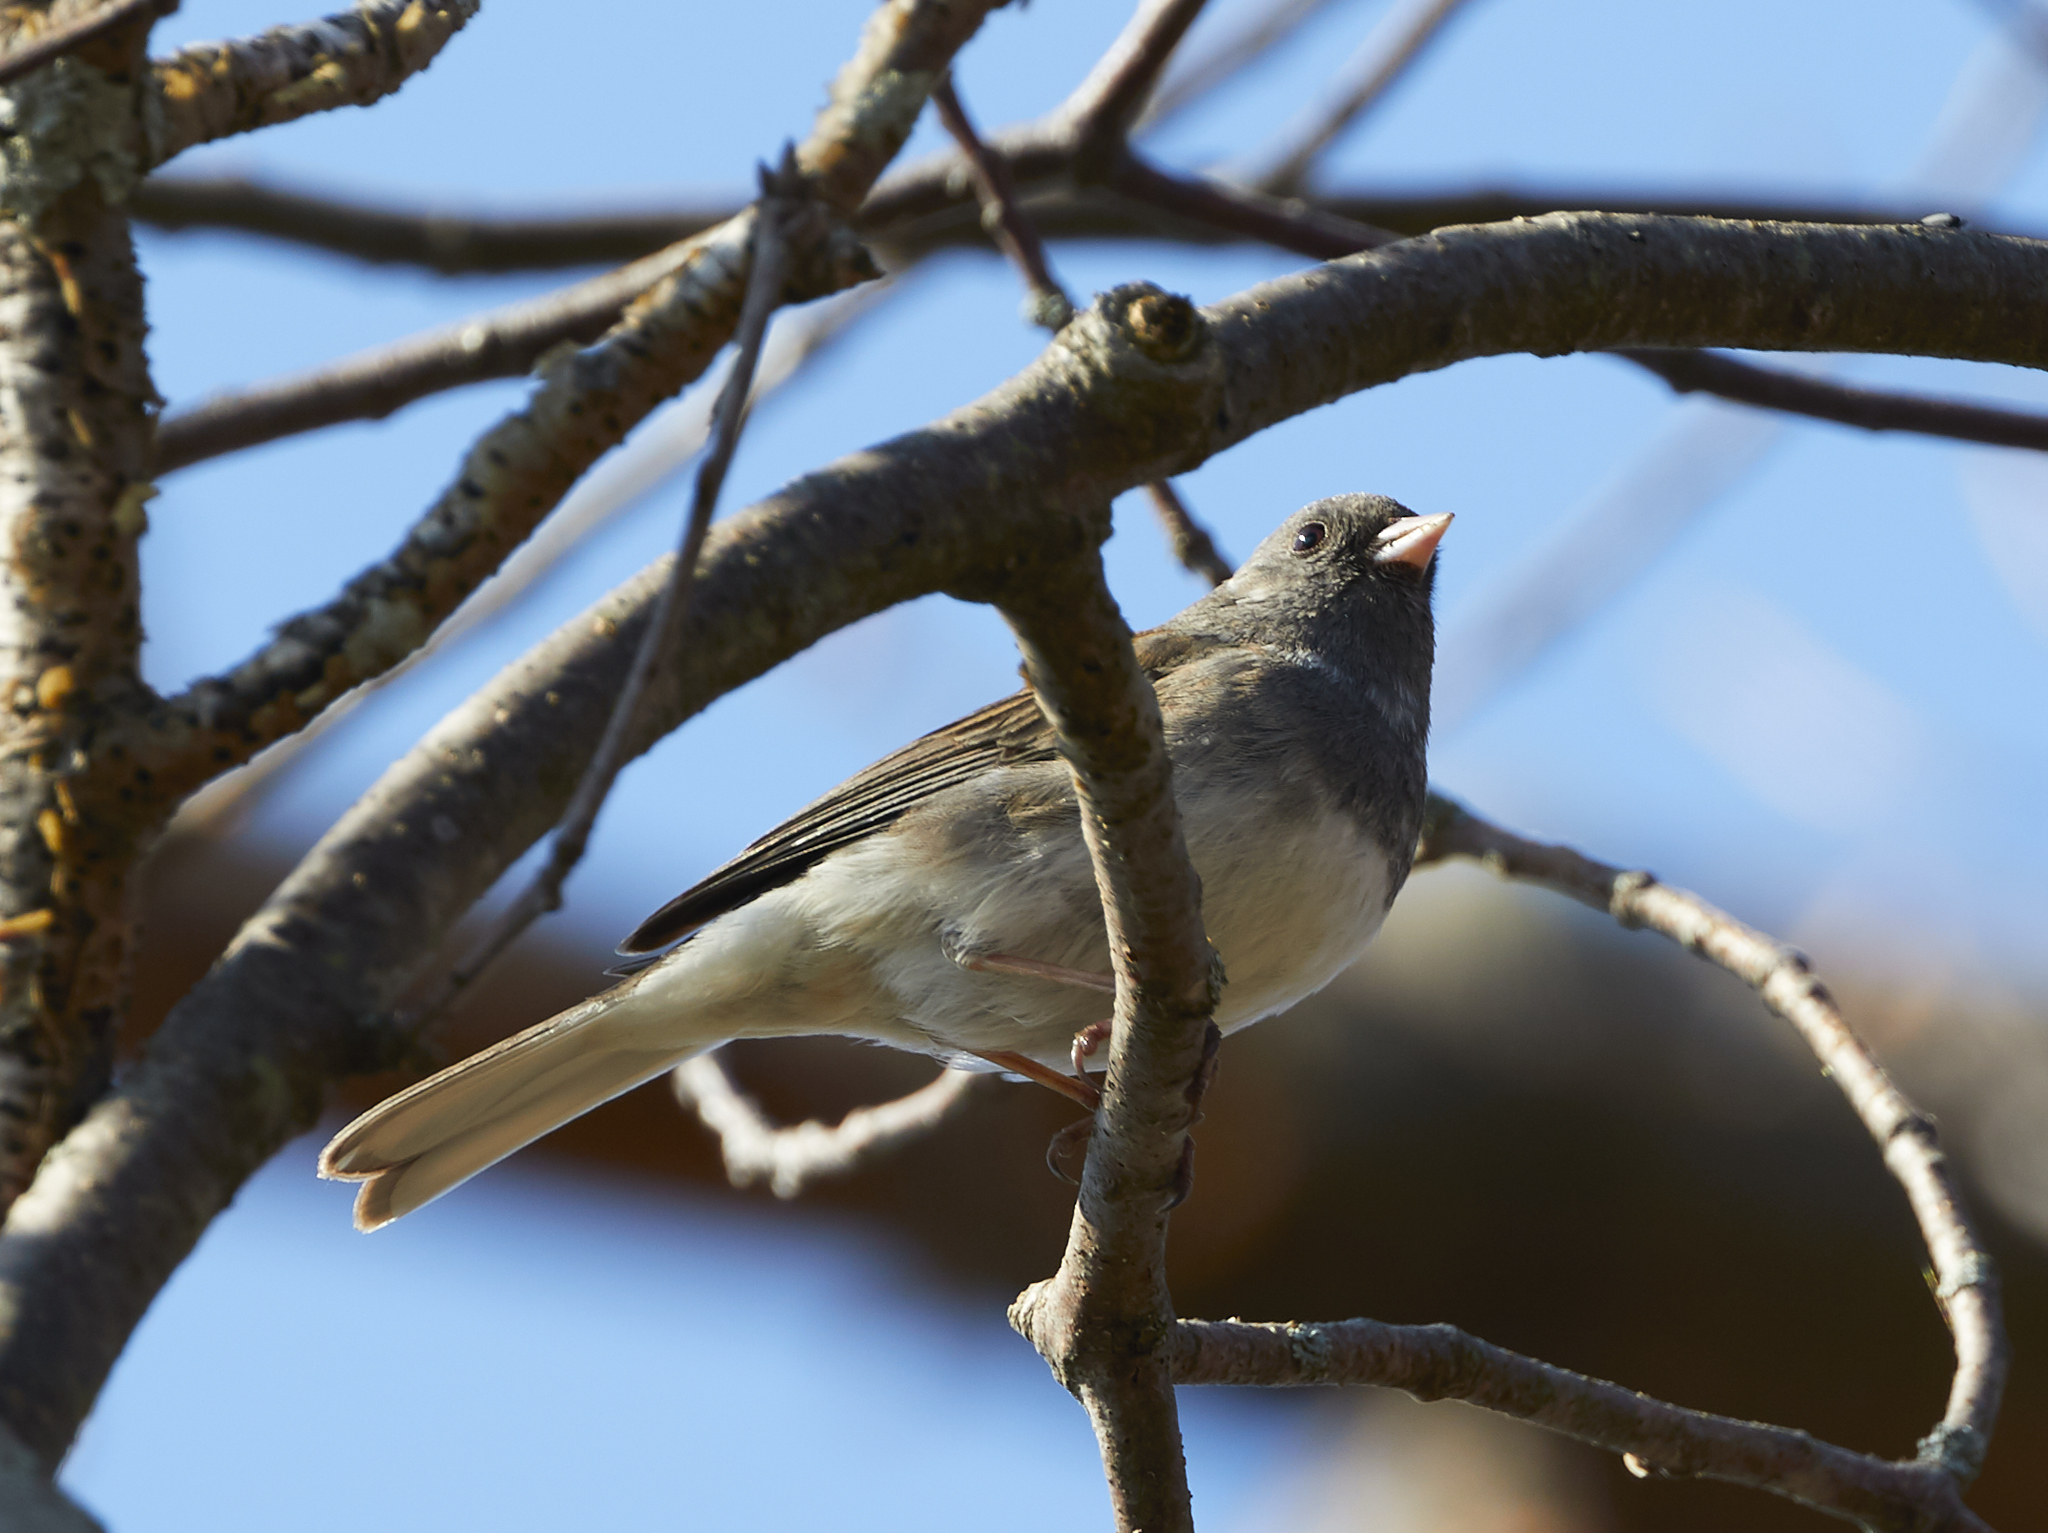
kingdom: Animalia
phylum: Chordata
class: Aves
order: Passeriformes
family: Passerellidae
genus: Junco
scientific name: Junco hyemalis
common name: Dark-eyed junco
